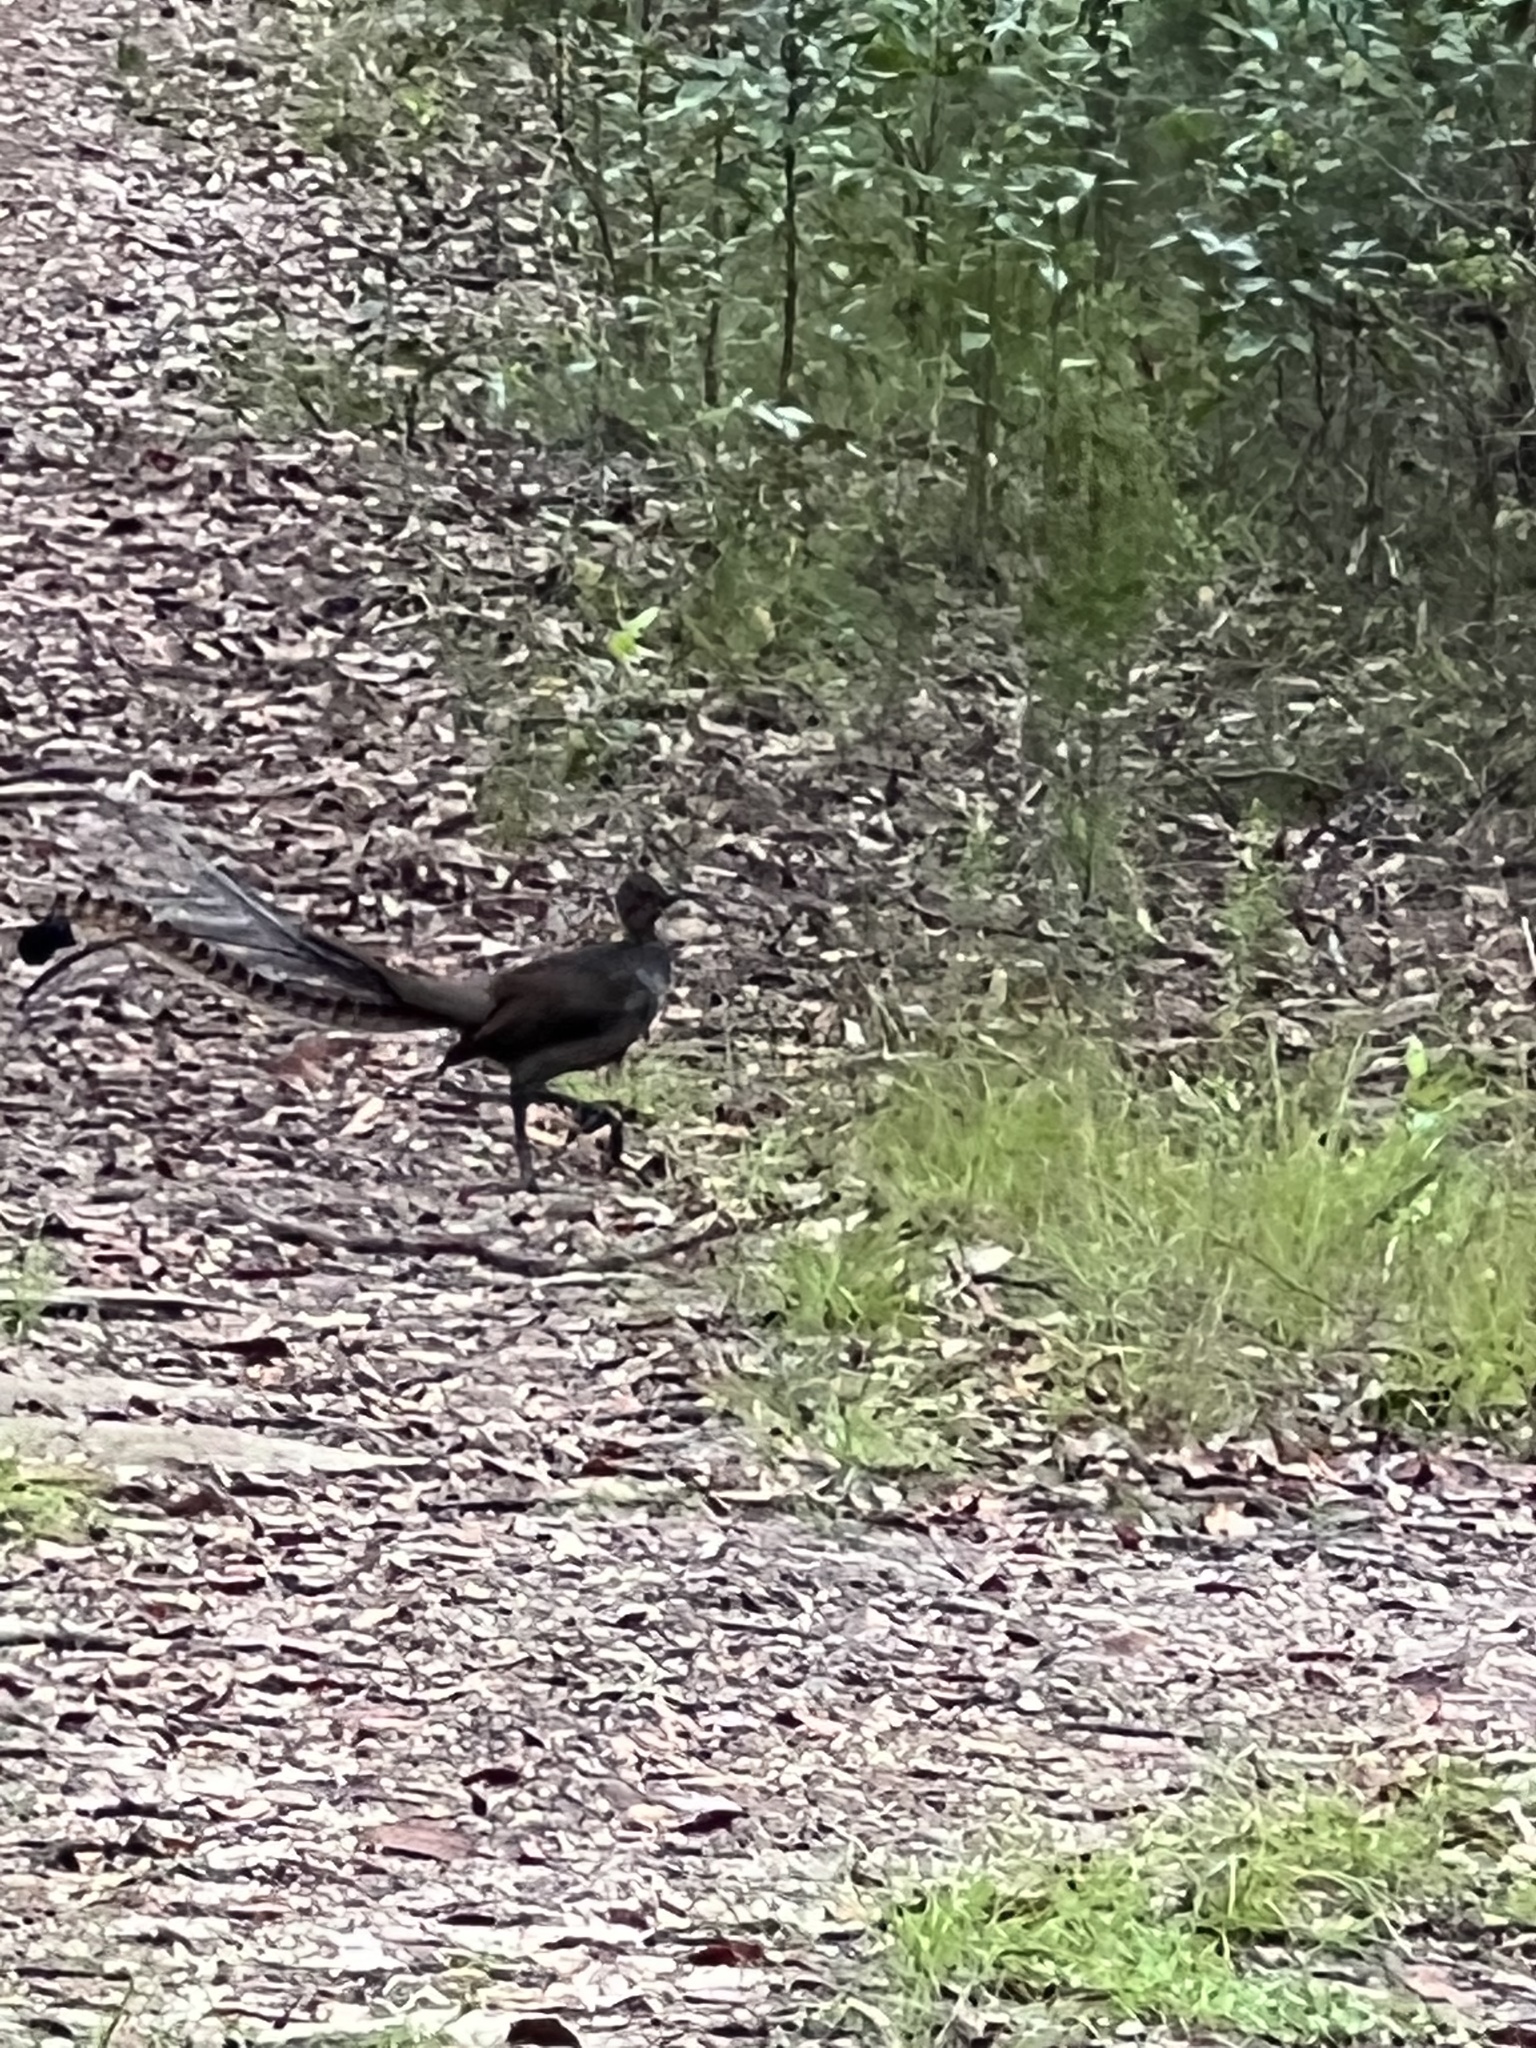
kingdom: Animalia
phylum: Chordata
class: Aves
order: Passeriformes
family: Menuridae
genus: Menura
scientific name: Menura novaehollandiae
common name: Superb lyrebird
